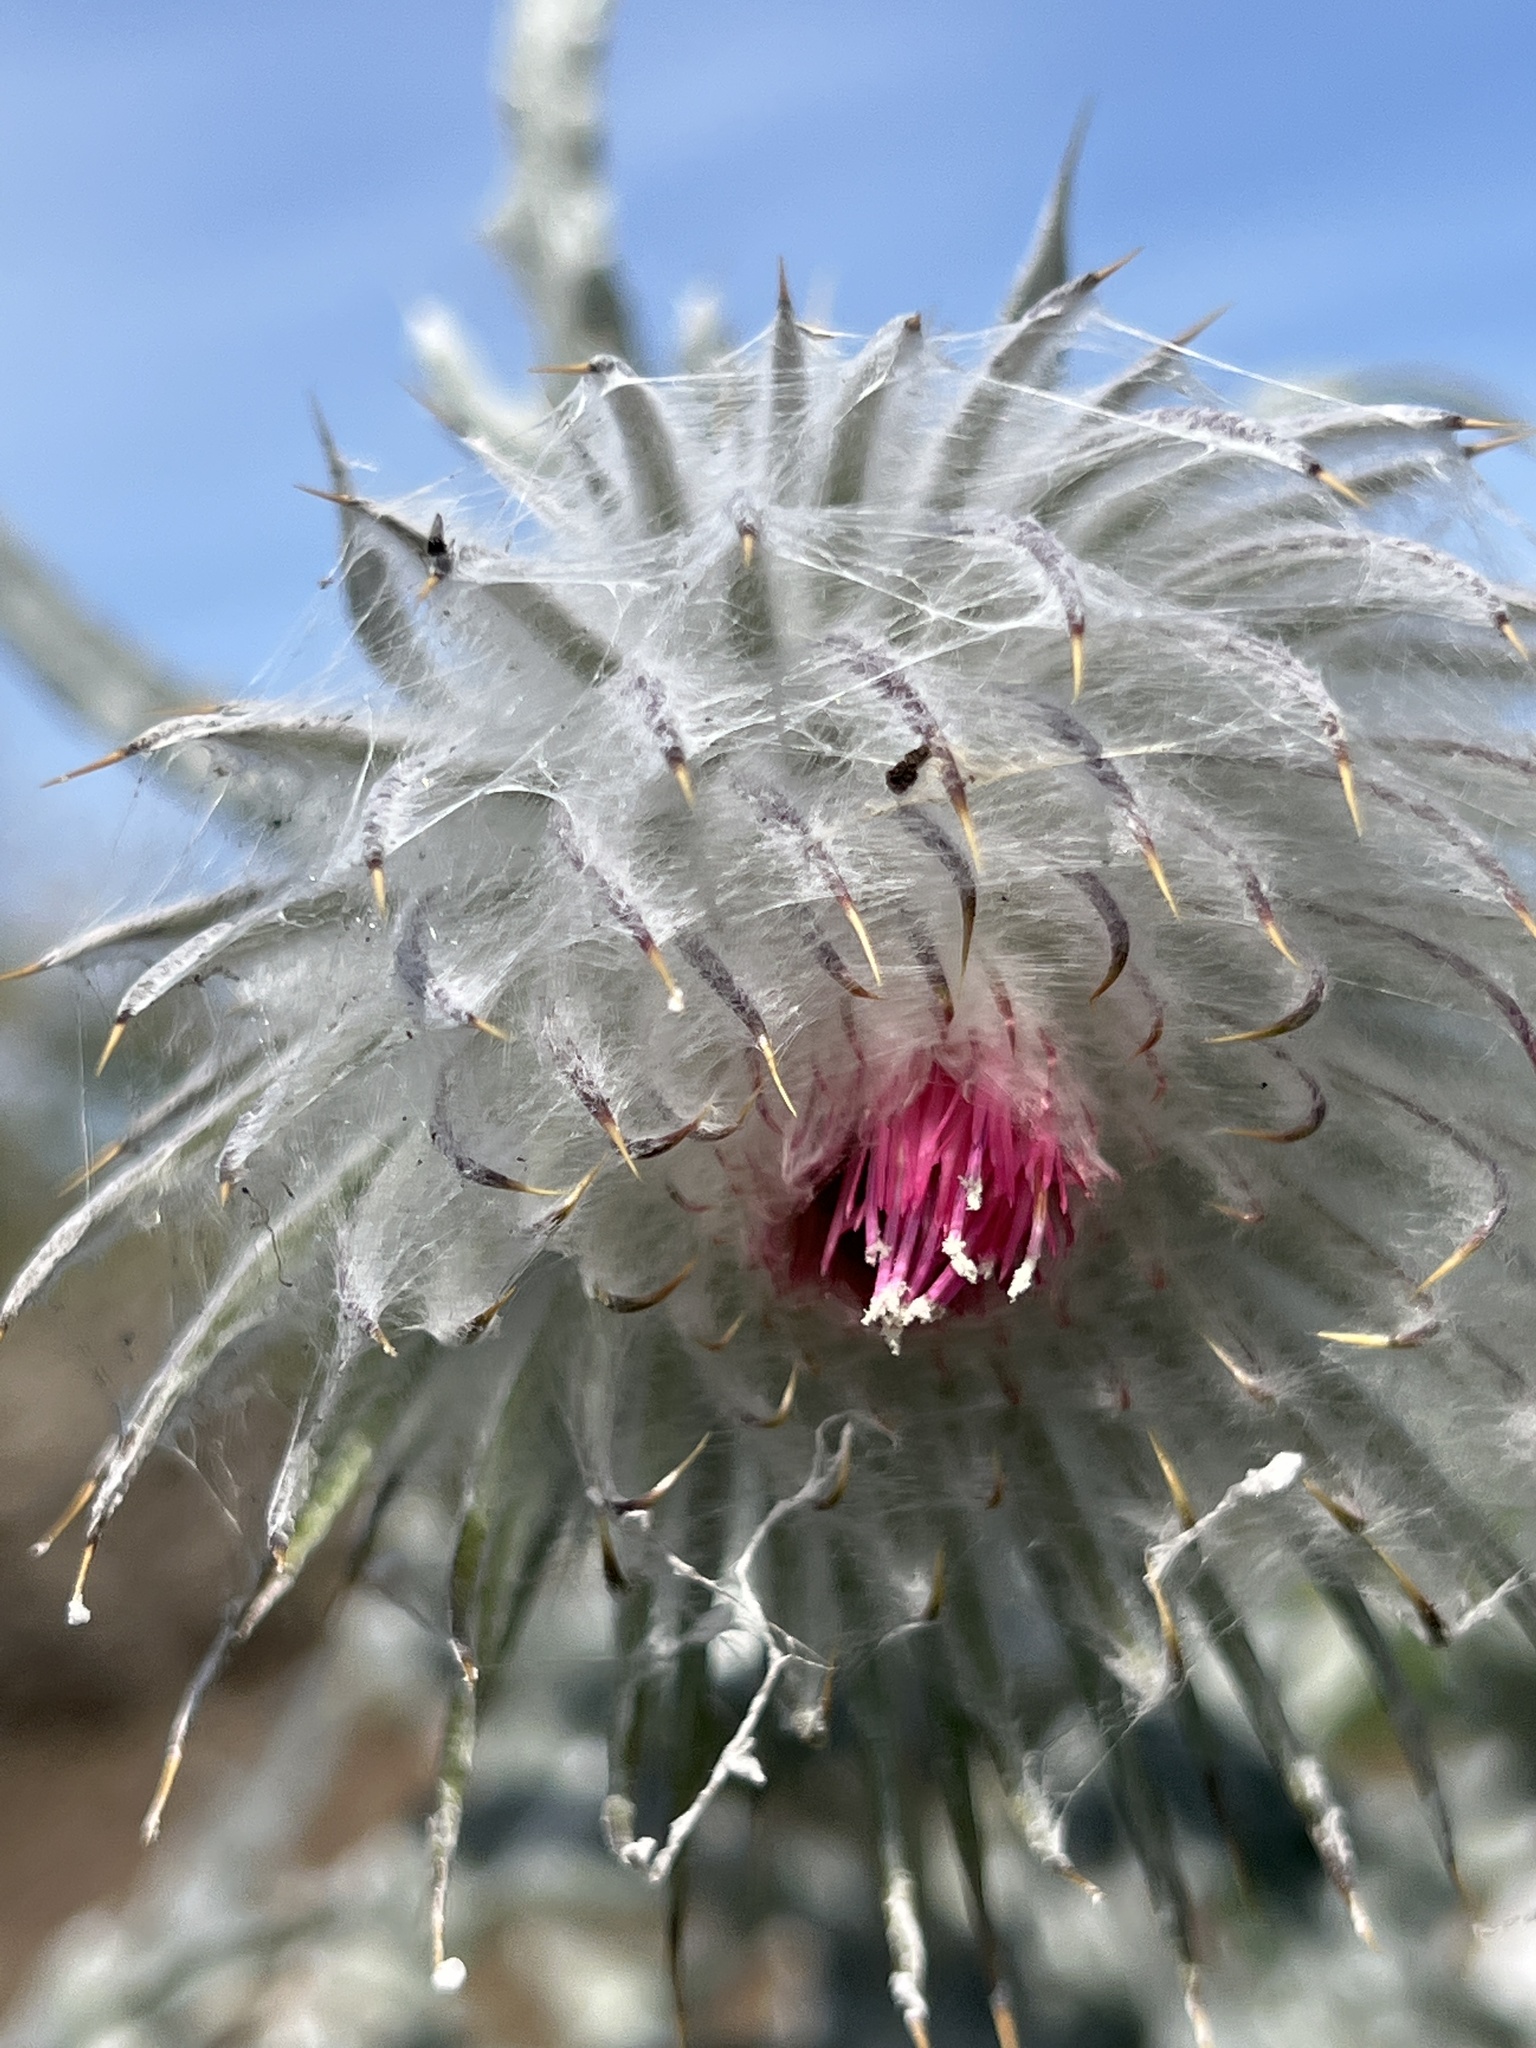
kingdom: Plantae
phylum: Tracheophyta
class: Magnoliopsida
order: Asterales
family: Asteraceae
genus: Cirsium
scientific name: Cirsium occidentale
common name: Western thistle
